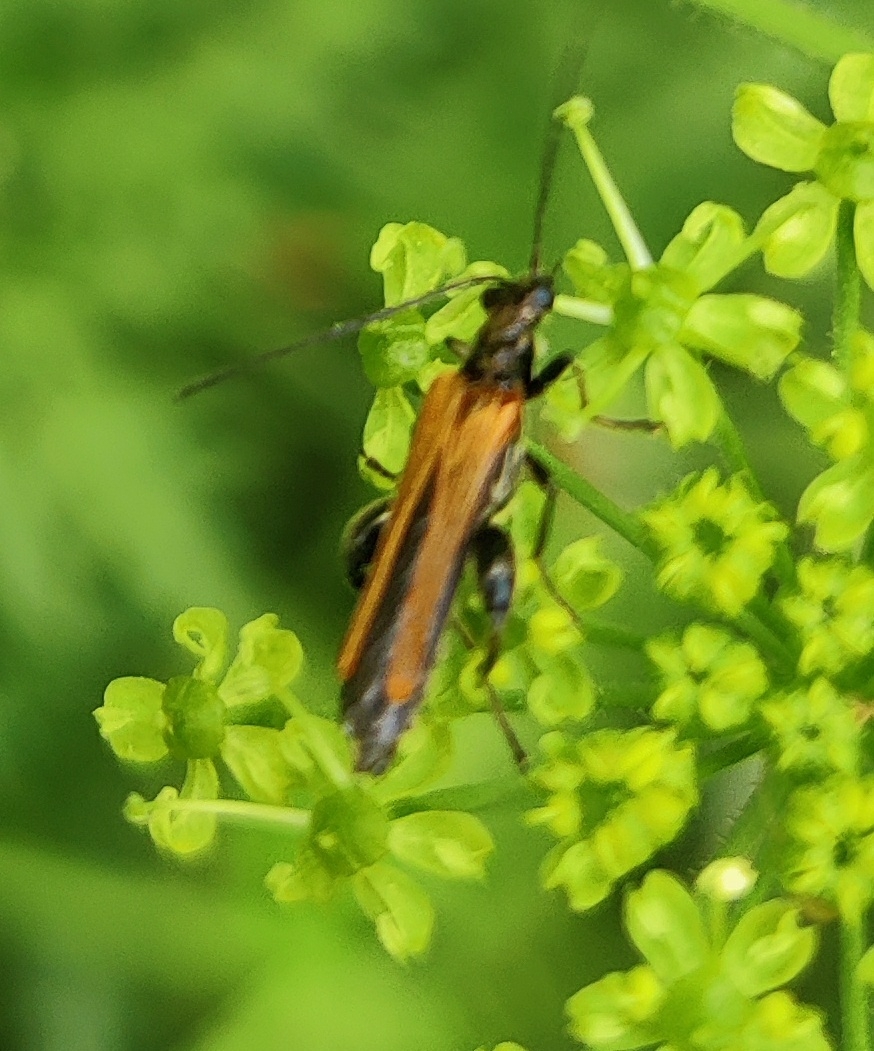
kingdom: Animalia
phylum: Arthropoda
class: Insecta
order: Coleoptera
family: Oedemeridae
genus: Oedemera
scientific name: Oedemera femorata
